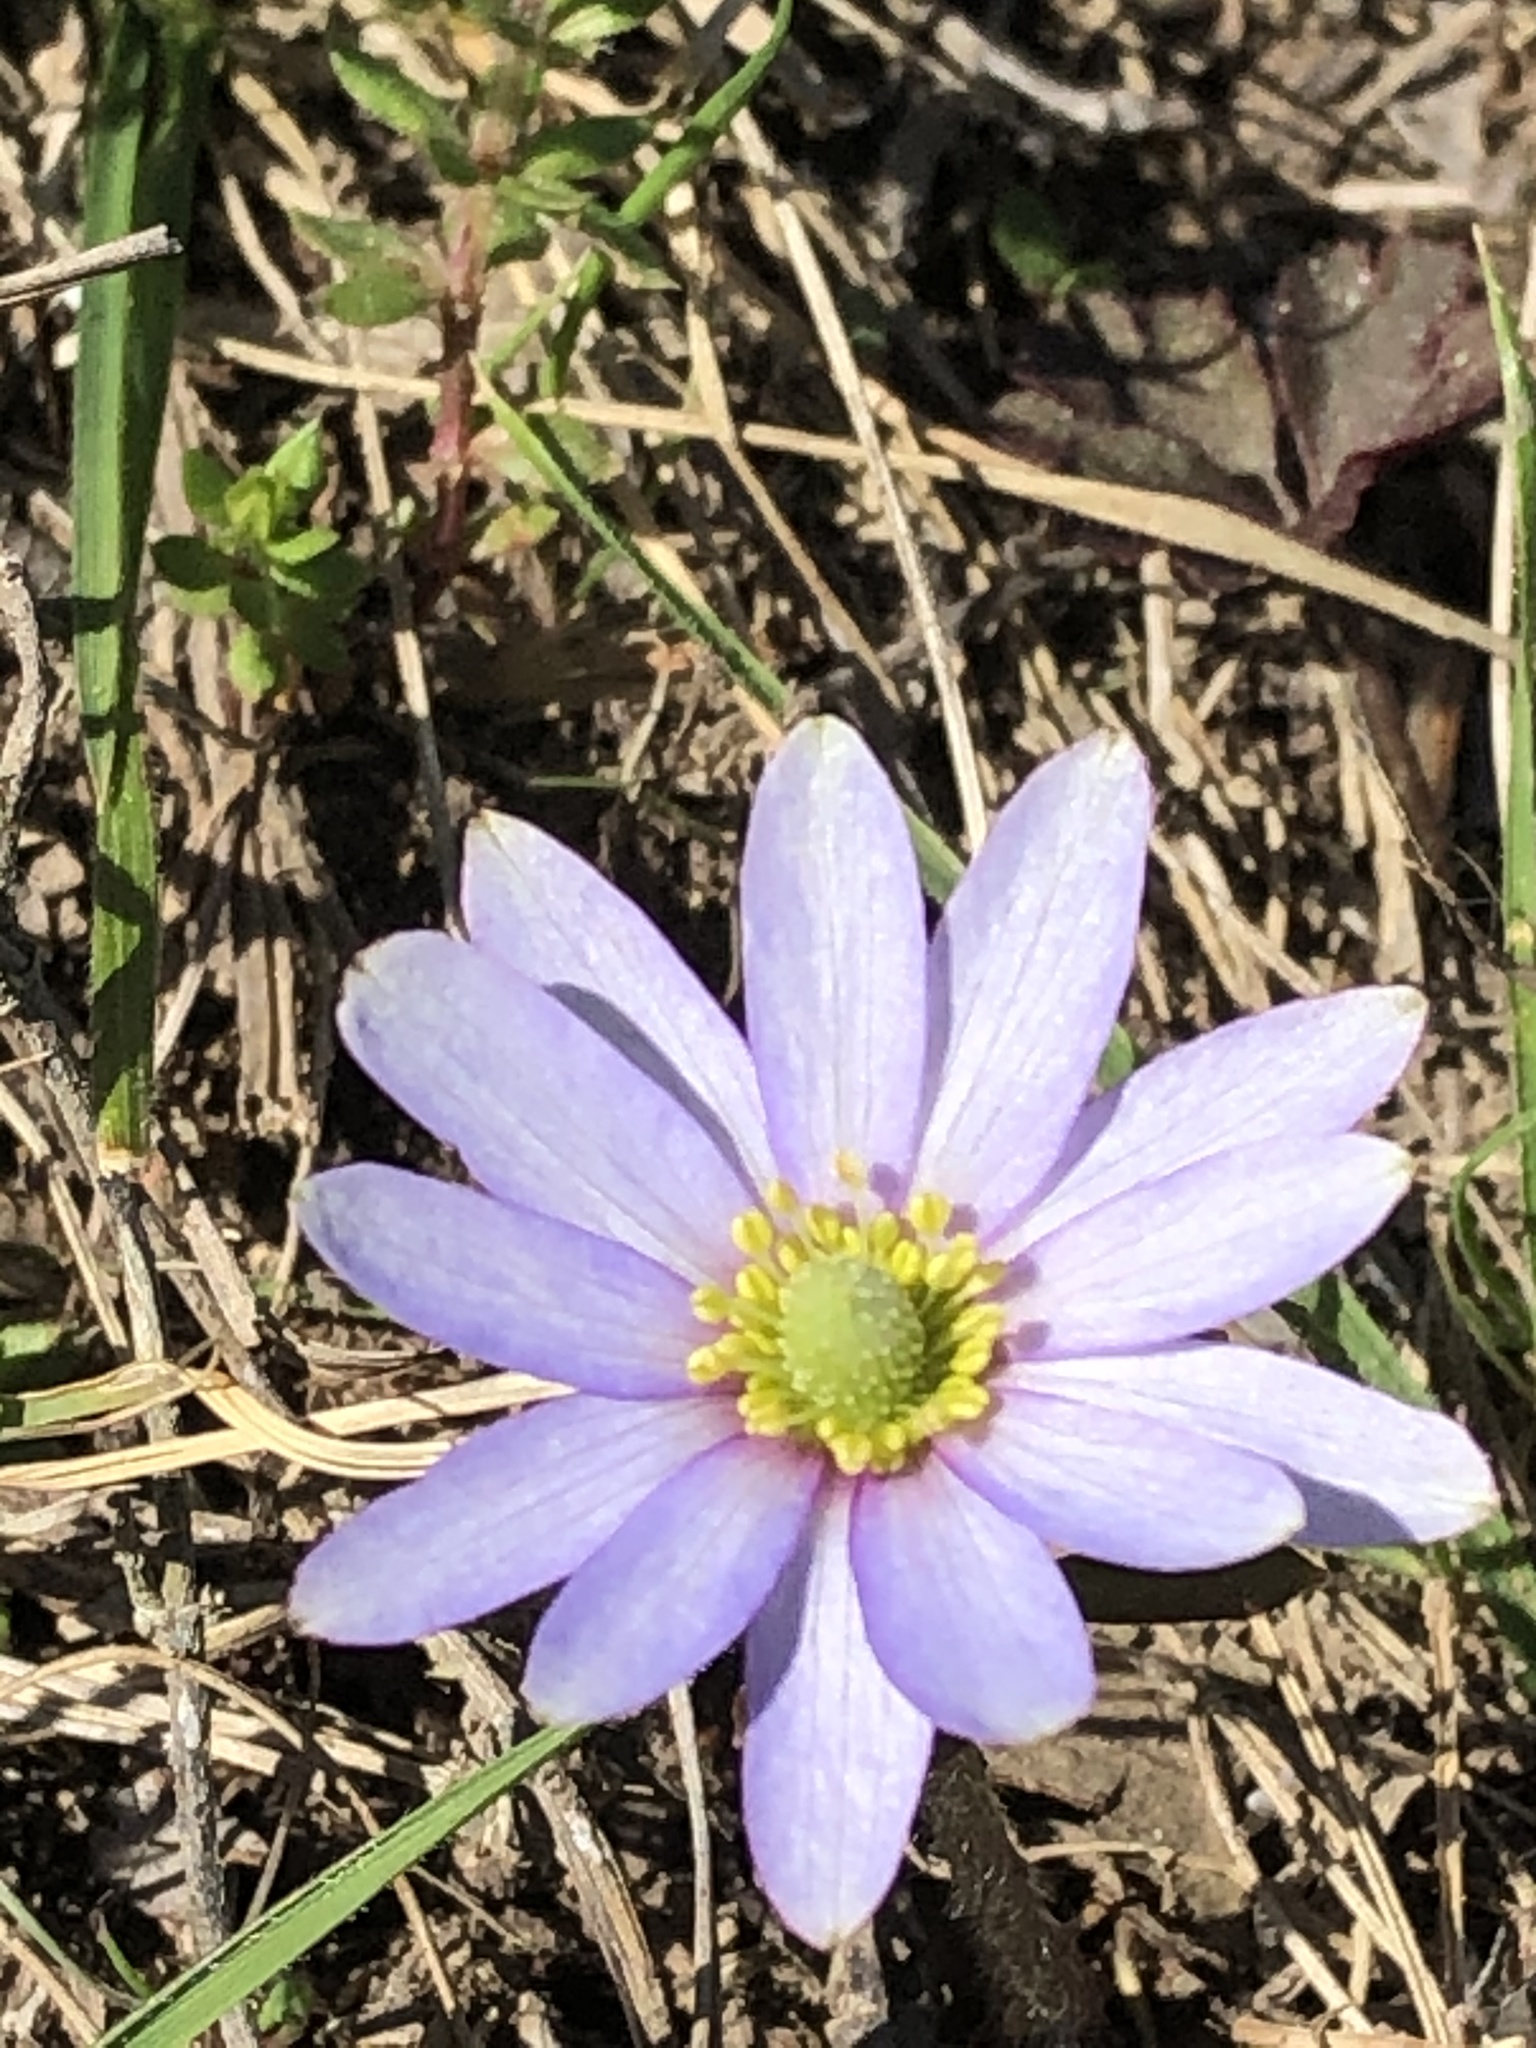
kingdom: Plantae
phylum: Tracheophyta
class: Magnoliopsida
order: Ranunculales
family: Ranunculaceae
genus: Anemone
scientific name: Anemone berlandieri
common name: Ten-petal anemone
